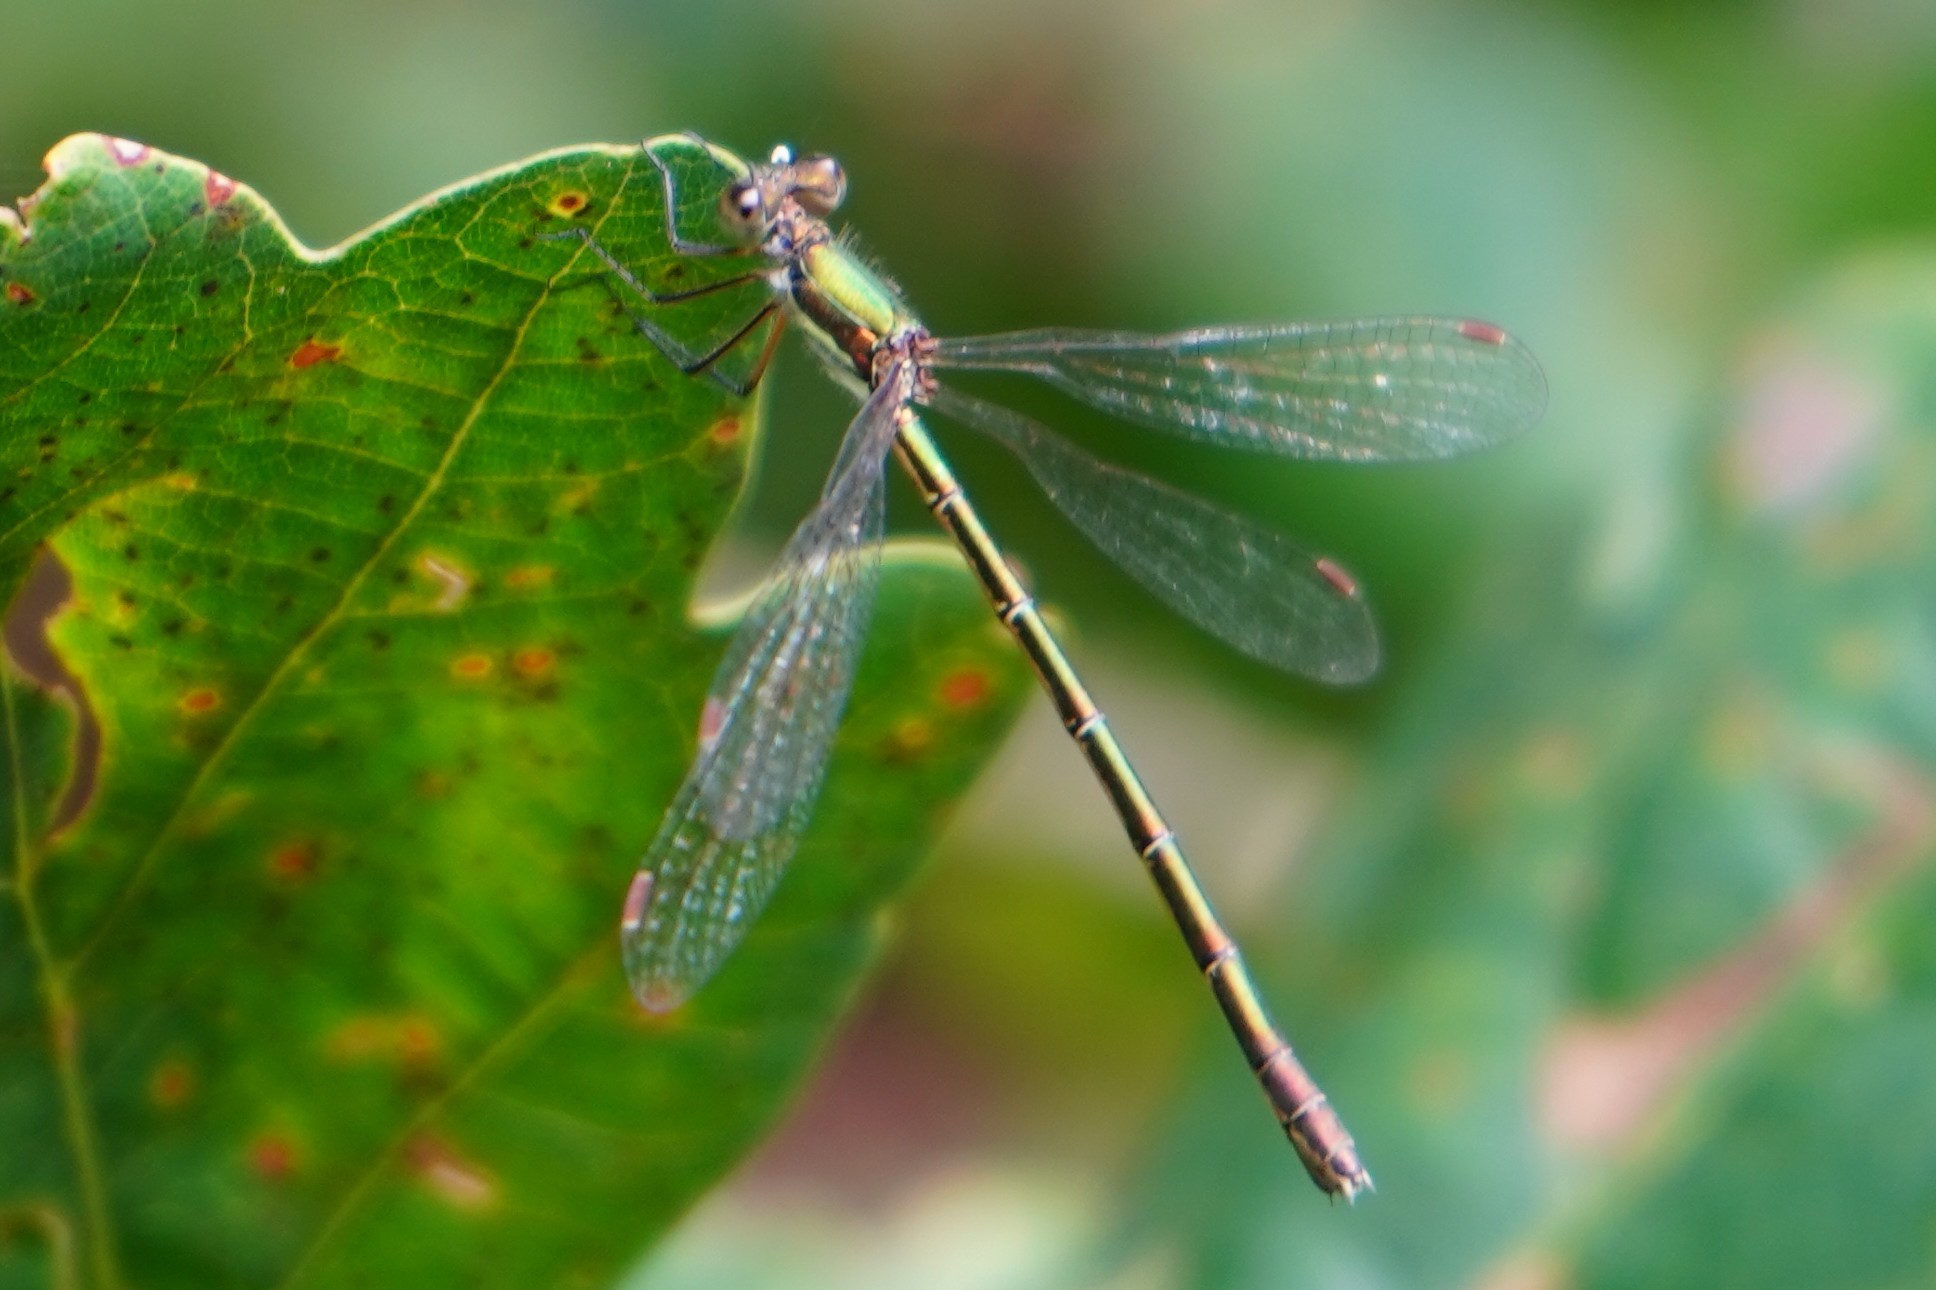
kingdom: Animalia
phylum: Arthropoda
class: Insecta
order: Odonata
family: Lestidae
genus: Lestes
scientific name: Lestes virens
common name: Small emerald spreadwing
